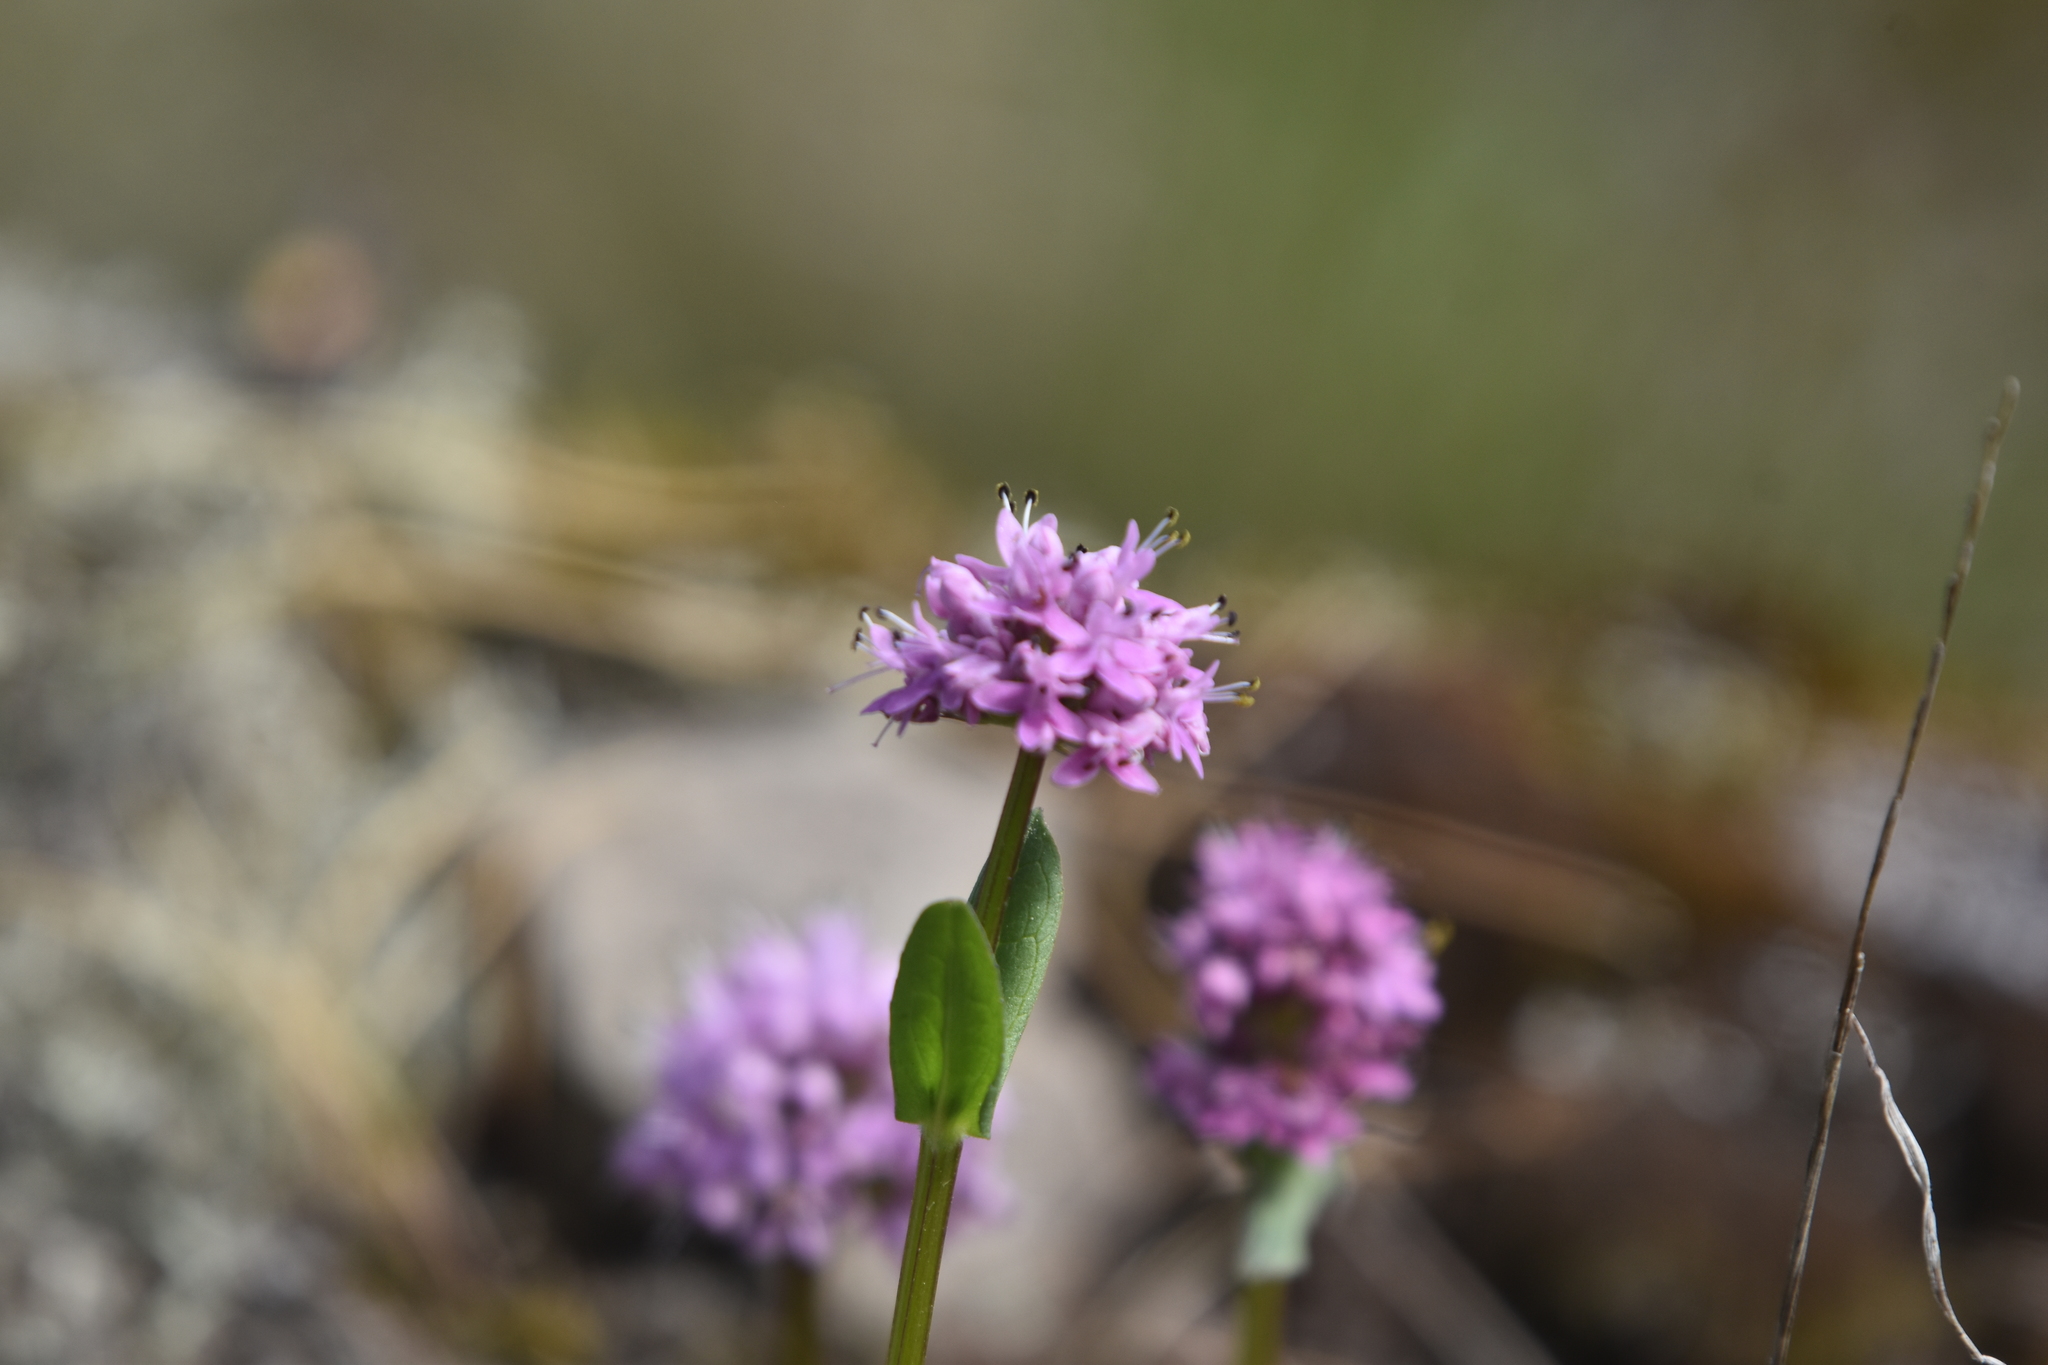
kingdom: Plantae
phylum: Tracheophyta
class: Magnoliopsida
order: Dipsacales
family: Caprifoliaceae
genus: Plectritis
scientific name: Plectritis congesta
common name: Pink plectritis
